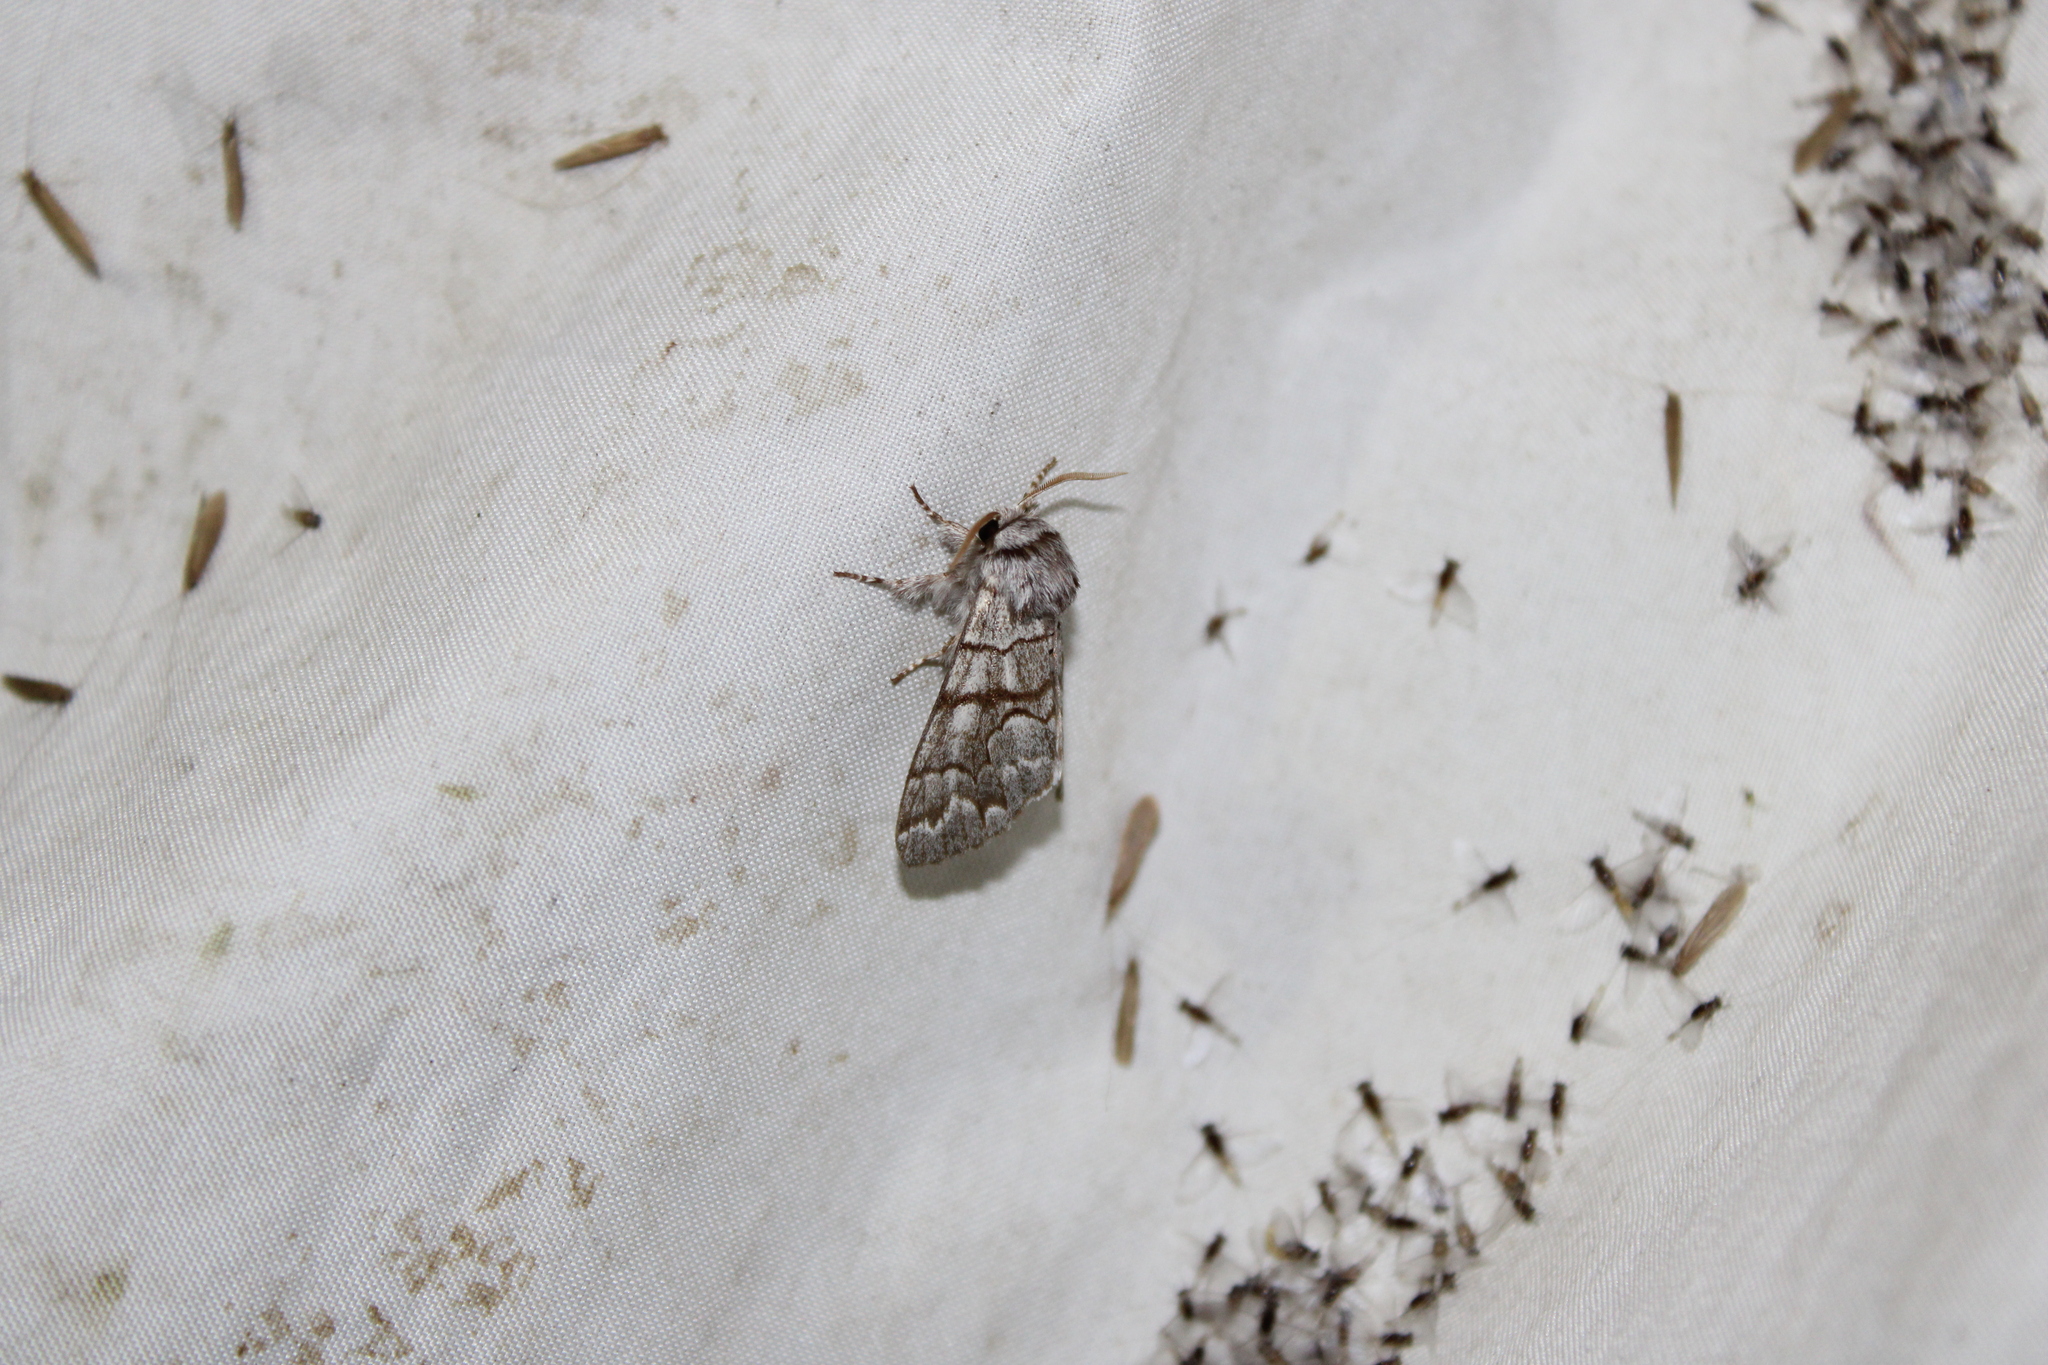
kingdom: Animalia
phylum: Arthropoda
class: Insecta
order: Lepidoptera
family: Noctuidae
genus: Panthea
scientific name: Panthea furcilla
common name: Eastern panthea moth
